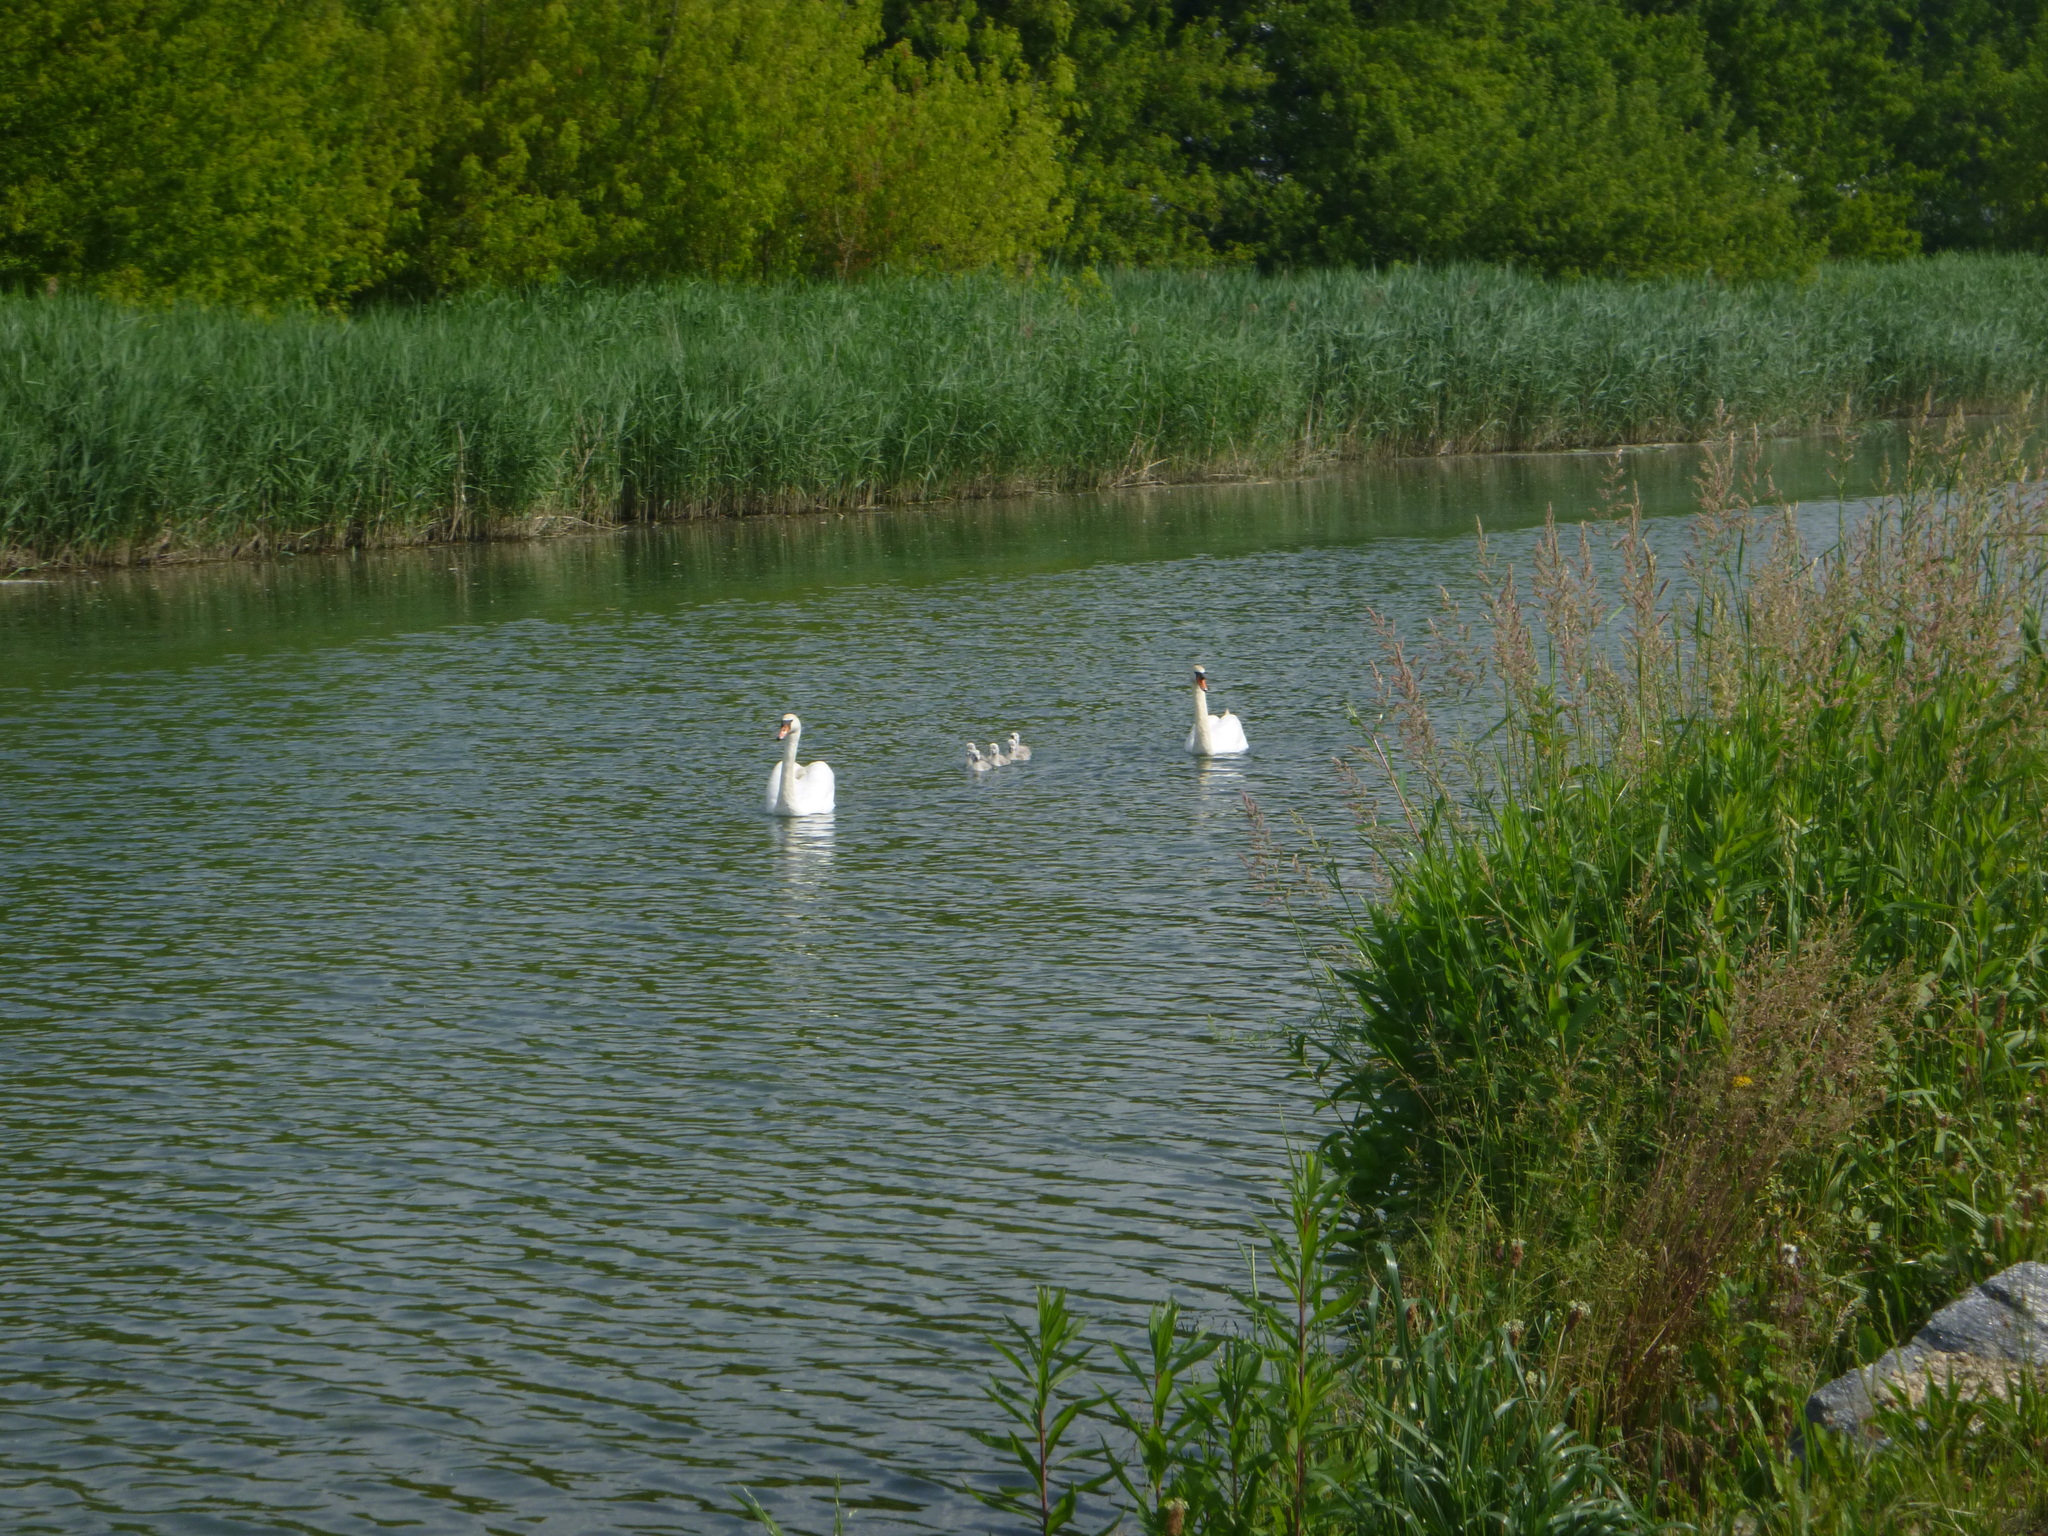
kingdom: Animalia
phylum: Chordata
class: Aves
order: Anseriformes
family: Anatidae
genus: Cygnus
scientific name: Cygnus olor
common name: Mute swan
